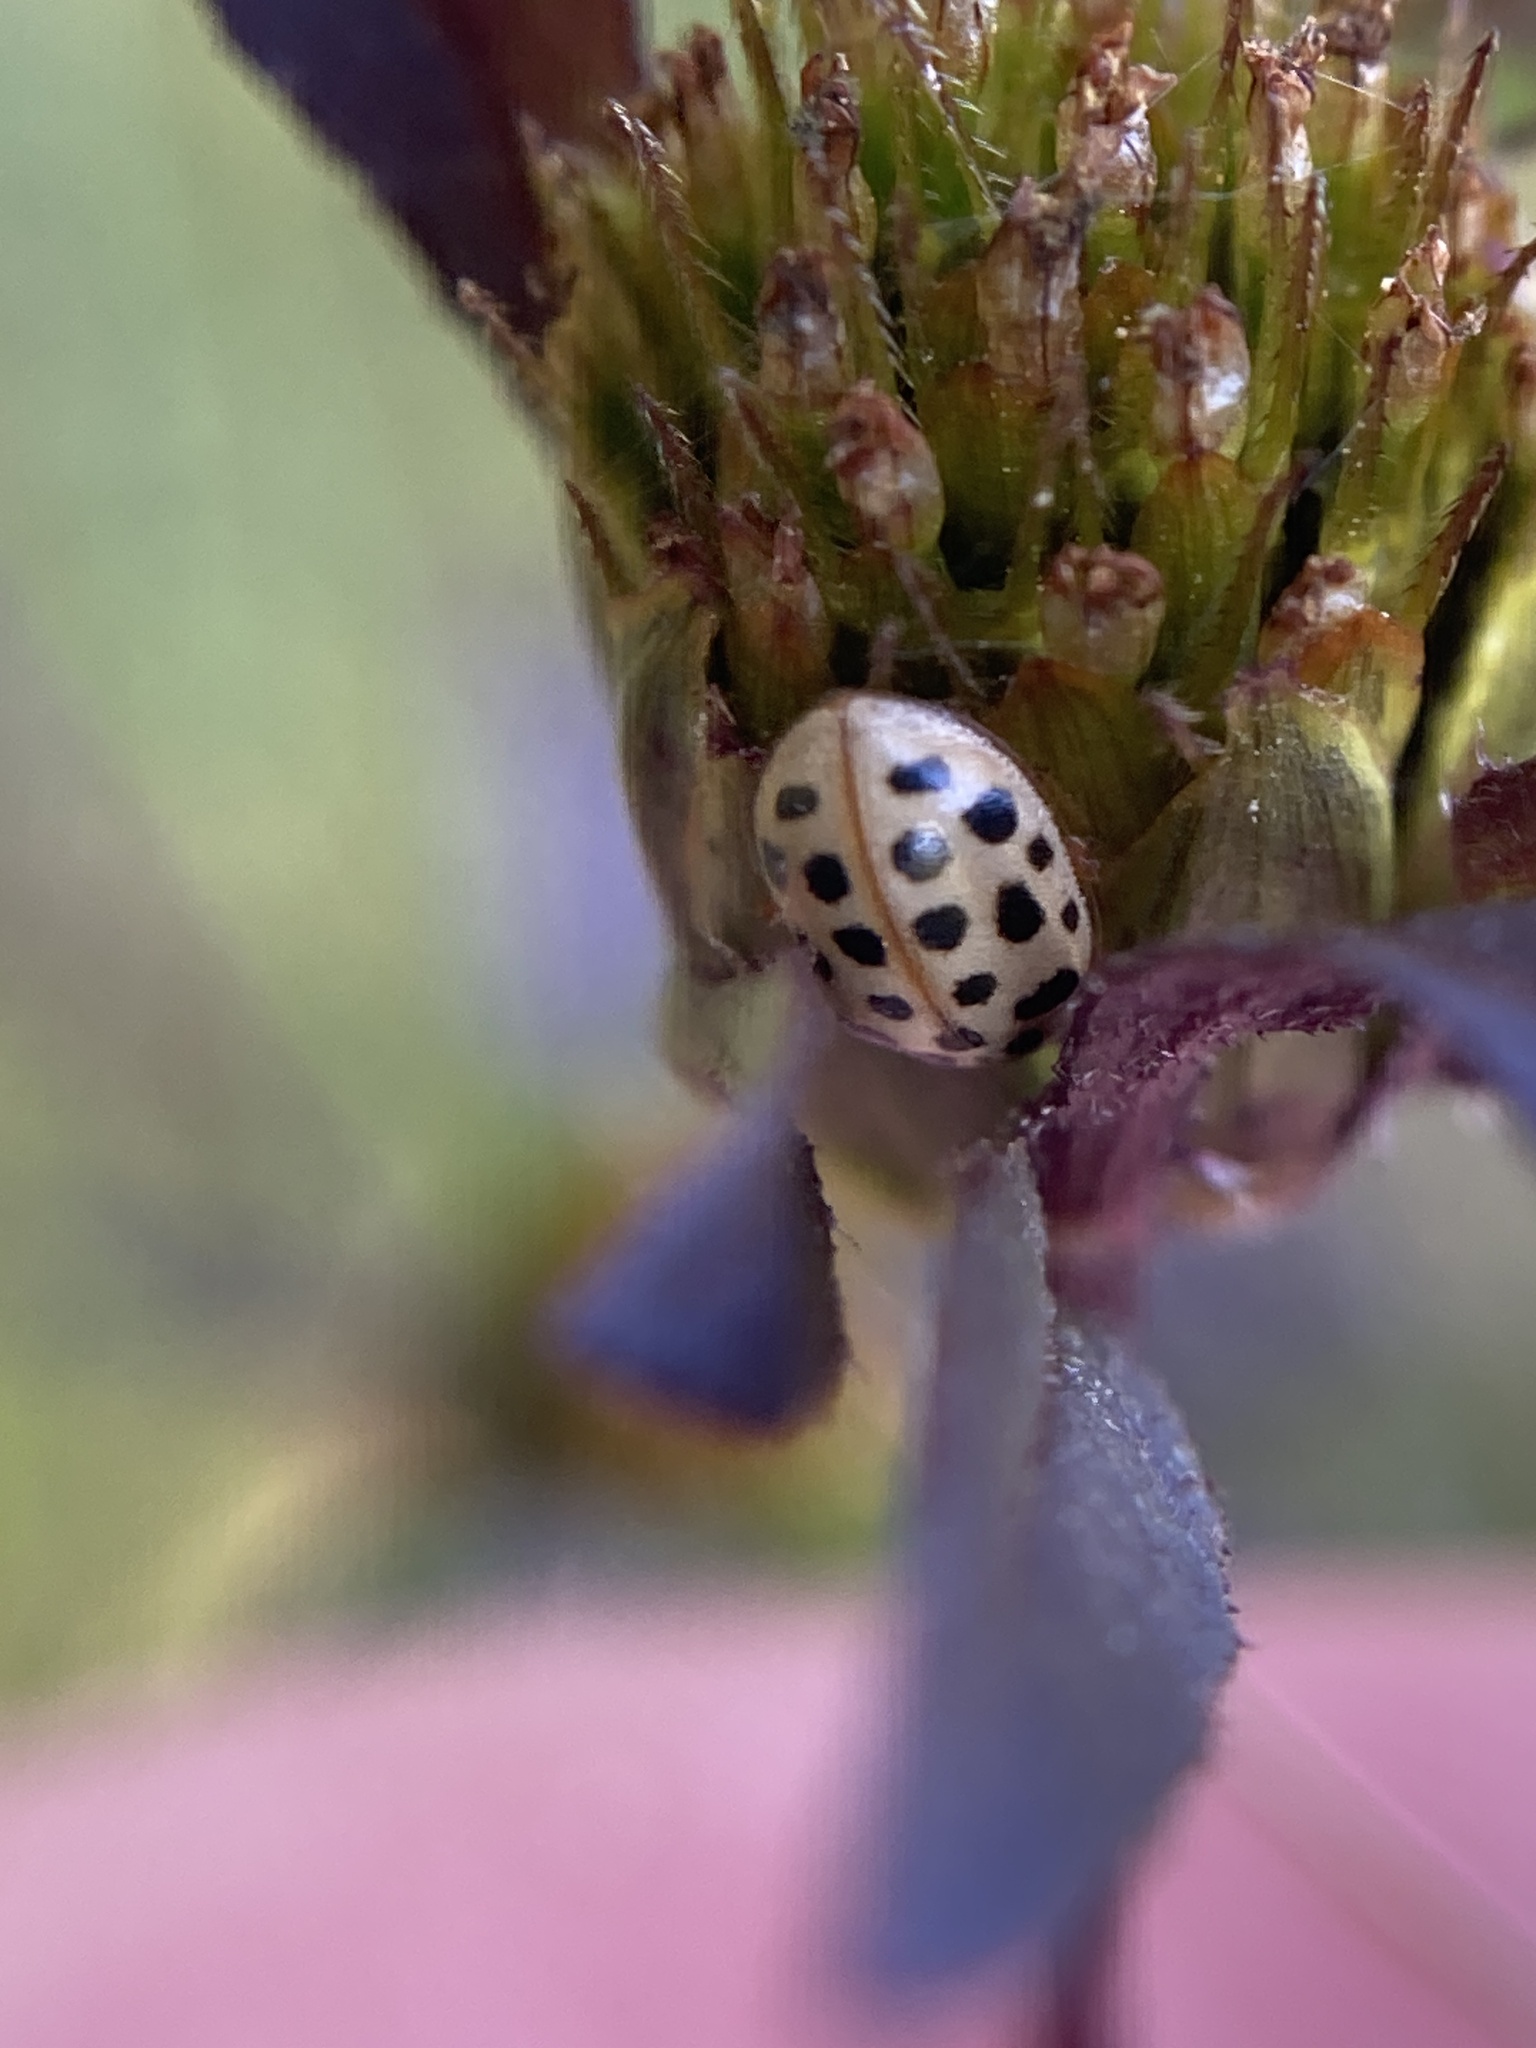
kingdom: Animalia
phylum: Arthropoda
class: Insecta
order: Coleoptera
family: Coccinellidae
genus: Anisosticta
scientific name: Anisosticta novemdecimpunctata
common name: Water ladybird
